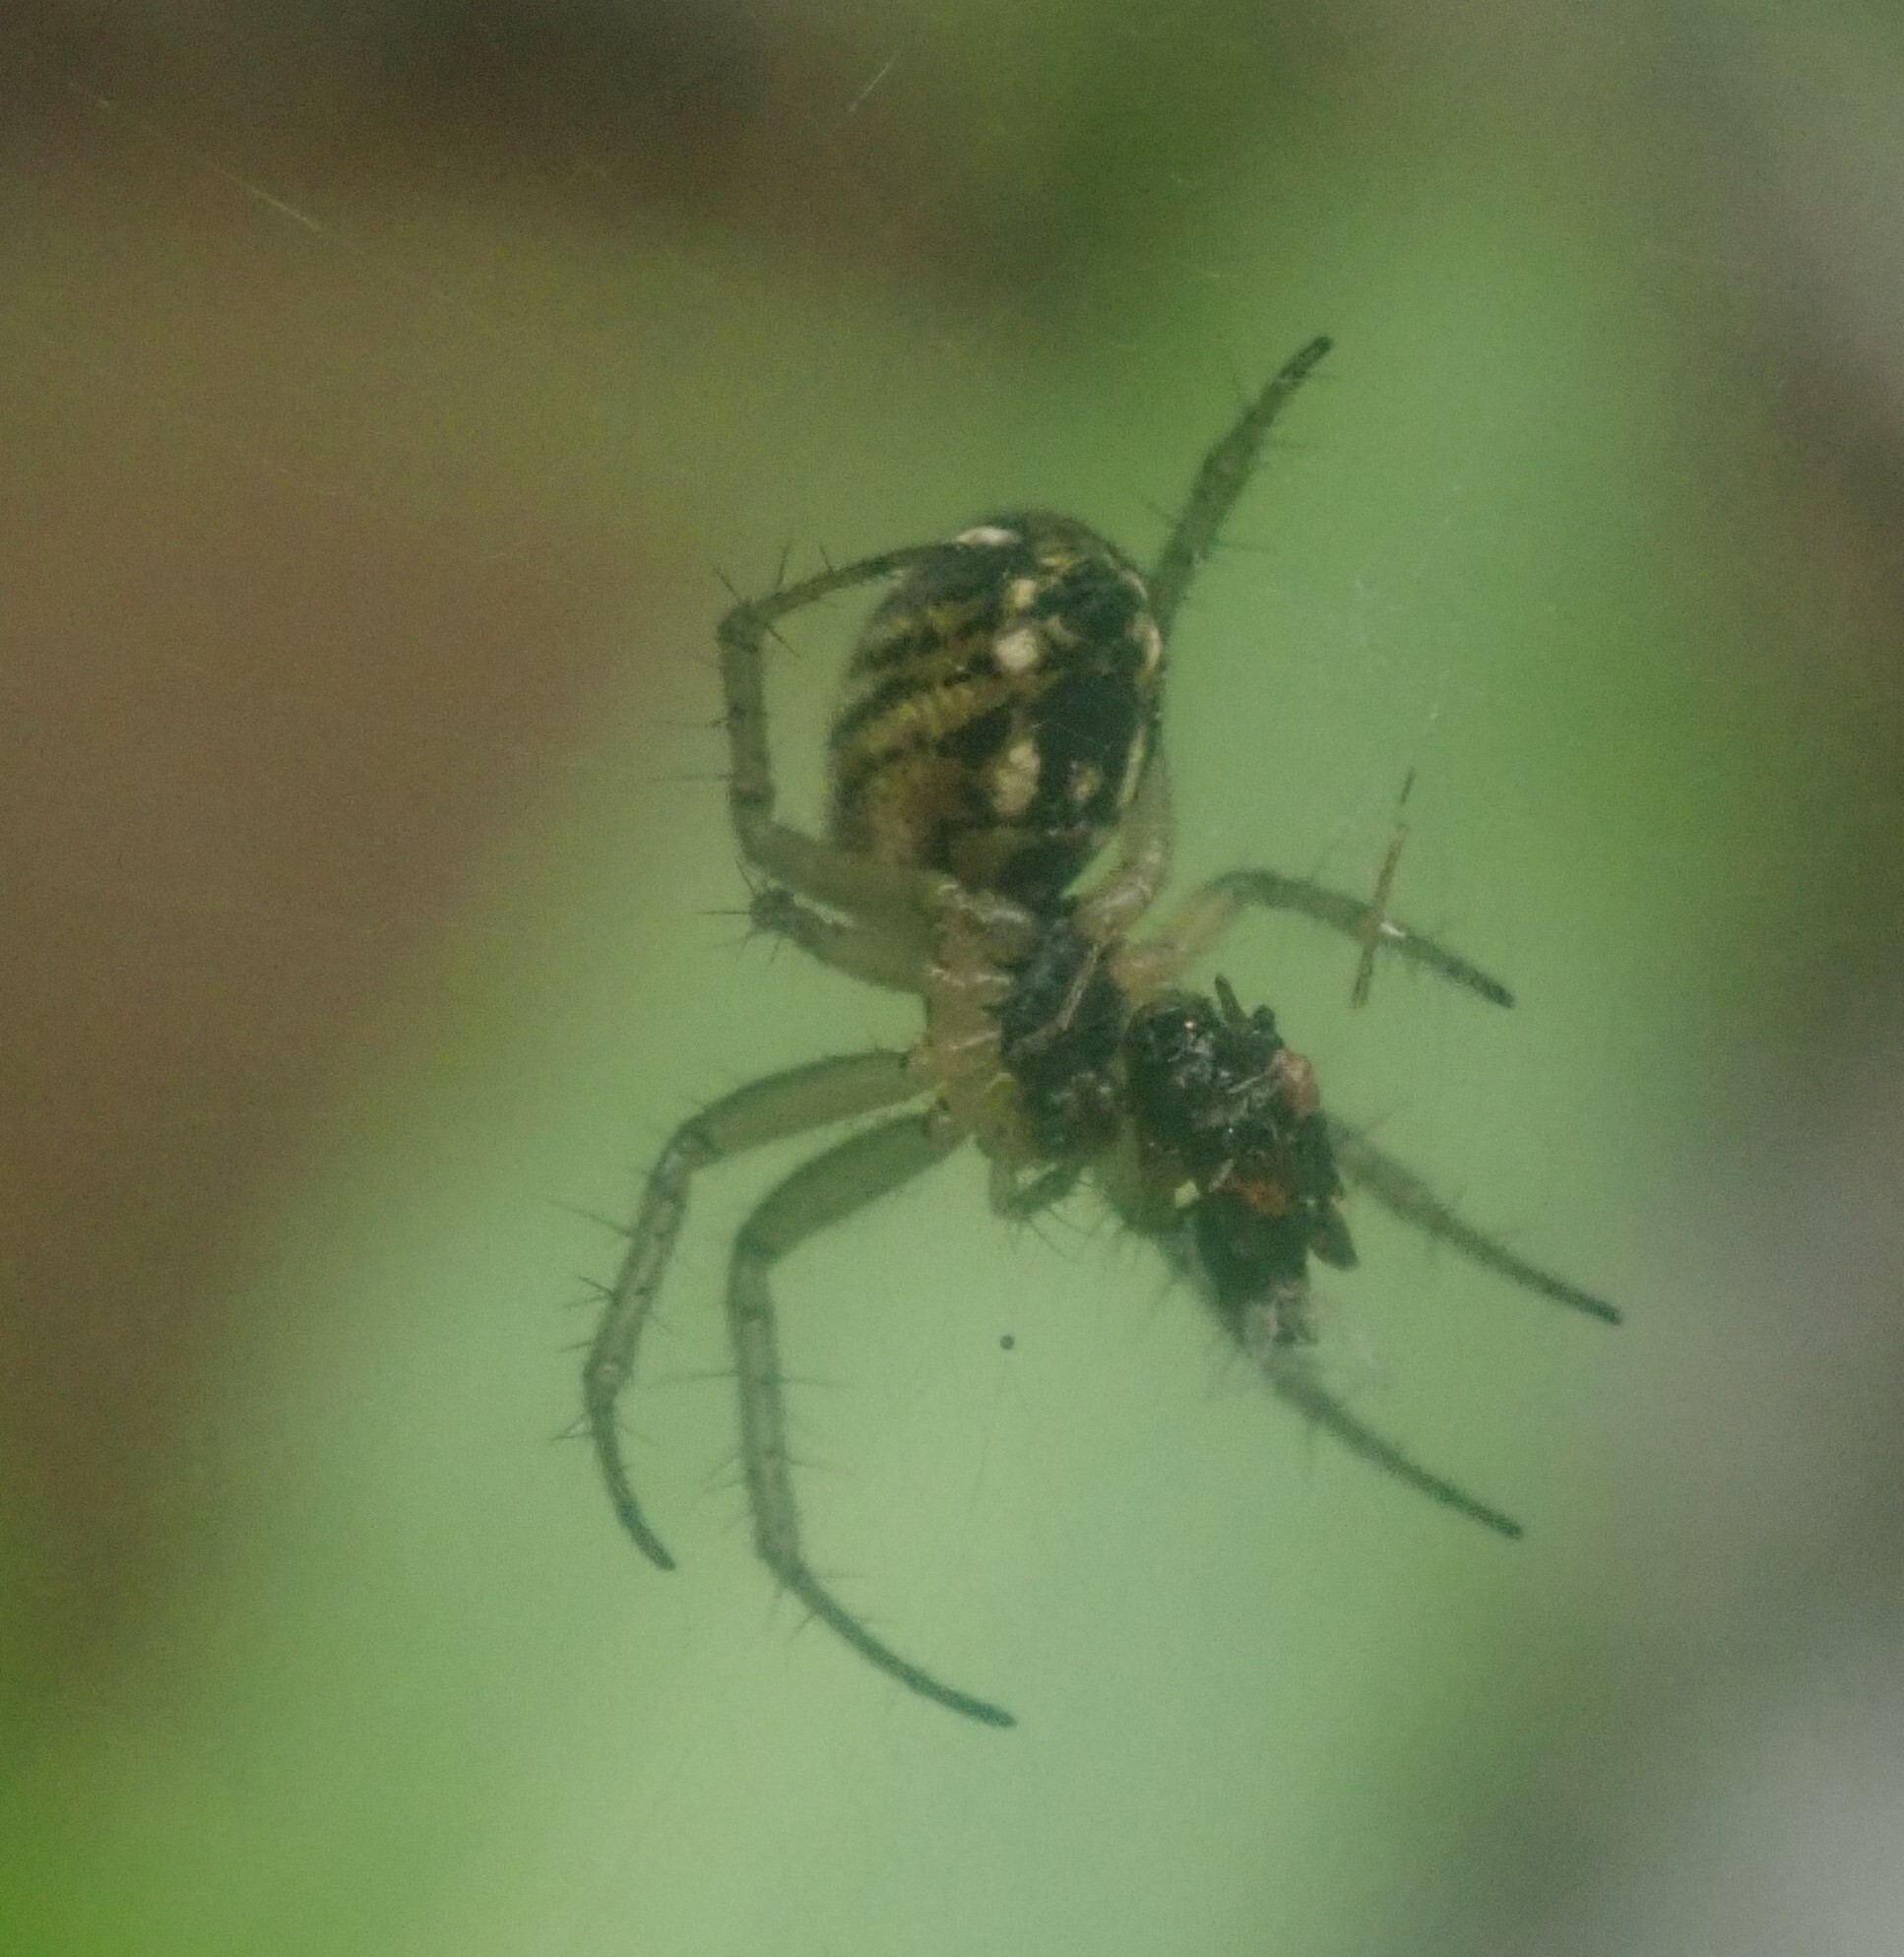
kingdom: Animalia
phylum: Arthropoda
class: Arachnida
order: Araneae
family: Araneidae
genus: Mangora
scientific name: Mangora acalypha
